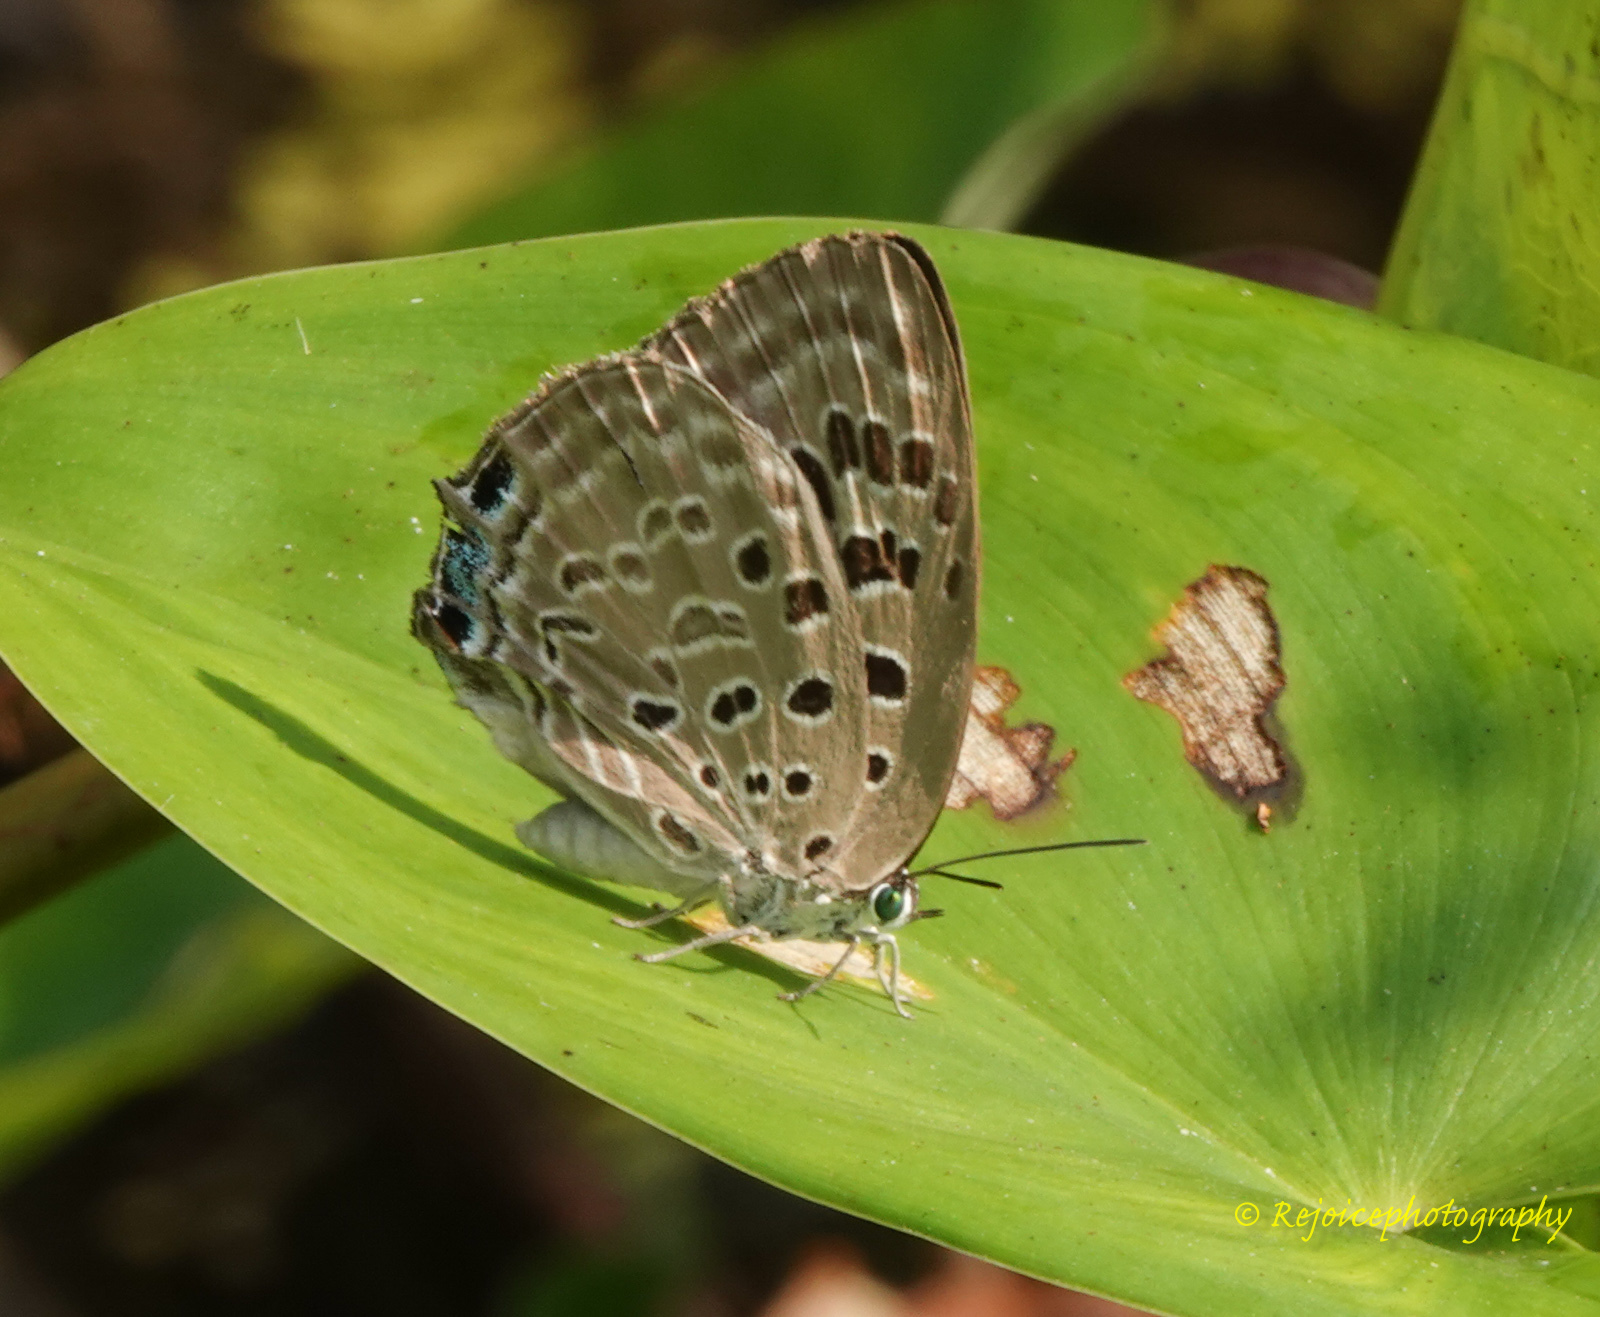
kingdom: Animalia
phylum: Arthropoda
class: Insecta
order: Lepidoptera
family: Lycaenidae
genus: Arhopala
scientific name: Arhopala camdeo
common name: Lilac oakblue
